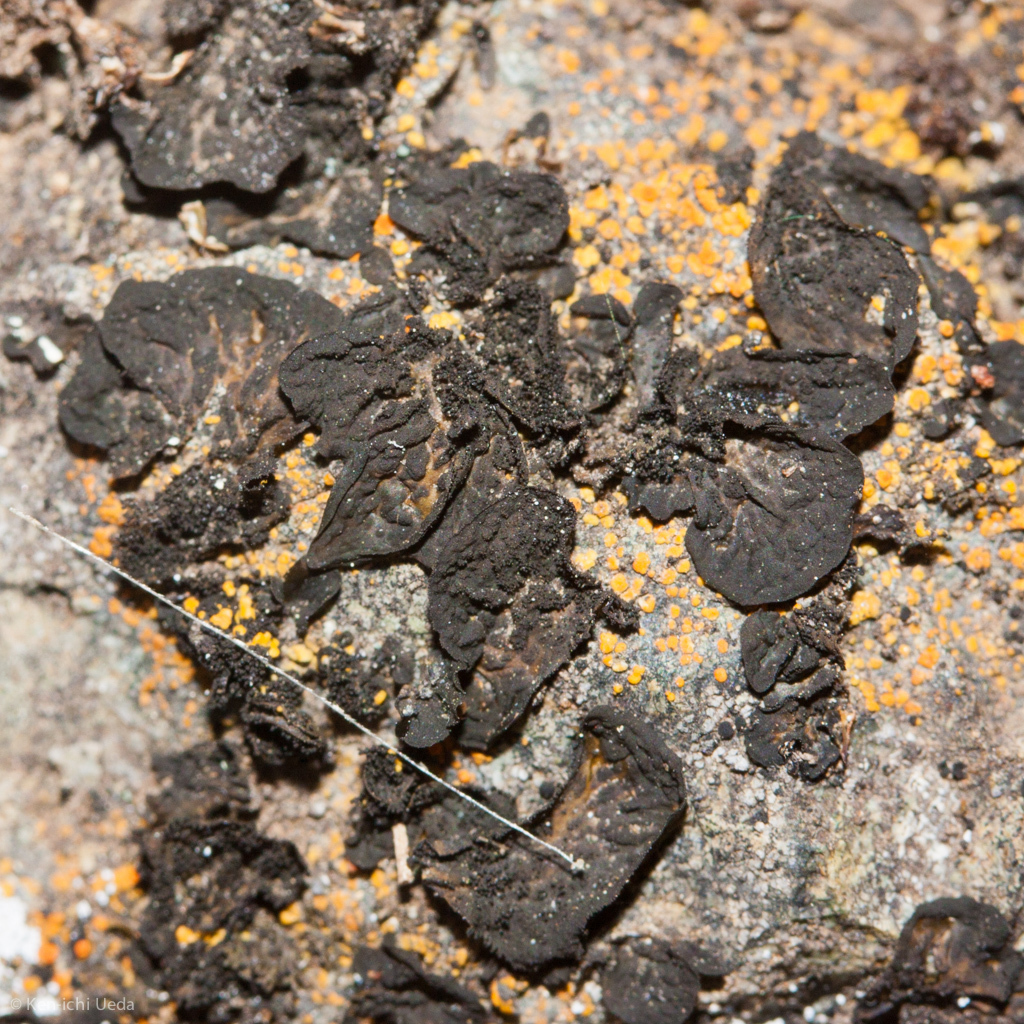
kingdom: Fungi
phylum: Ascomycota
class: Lecanoromycetes
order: Peltigerales
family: Collemataceae
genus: Collema
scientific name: Collema furfuraceum
